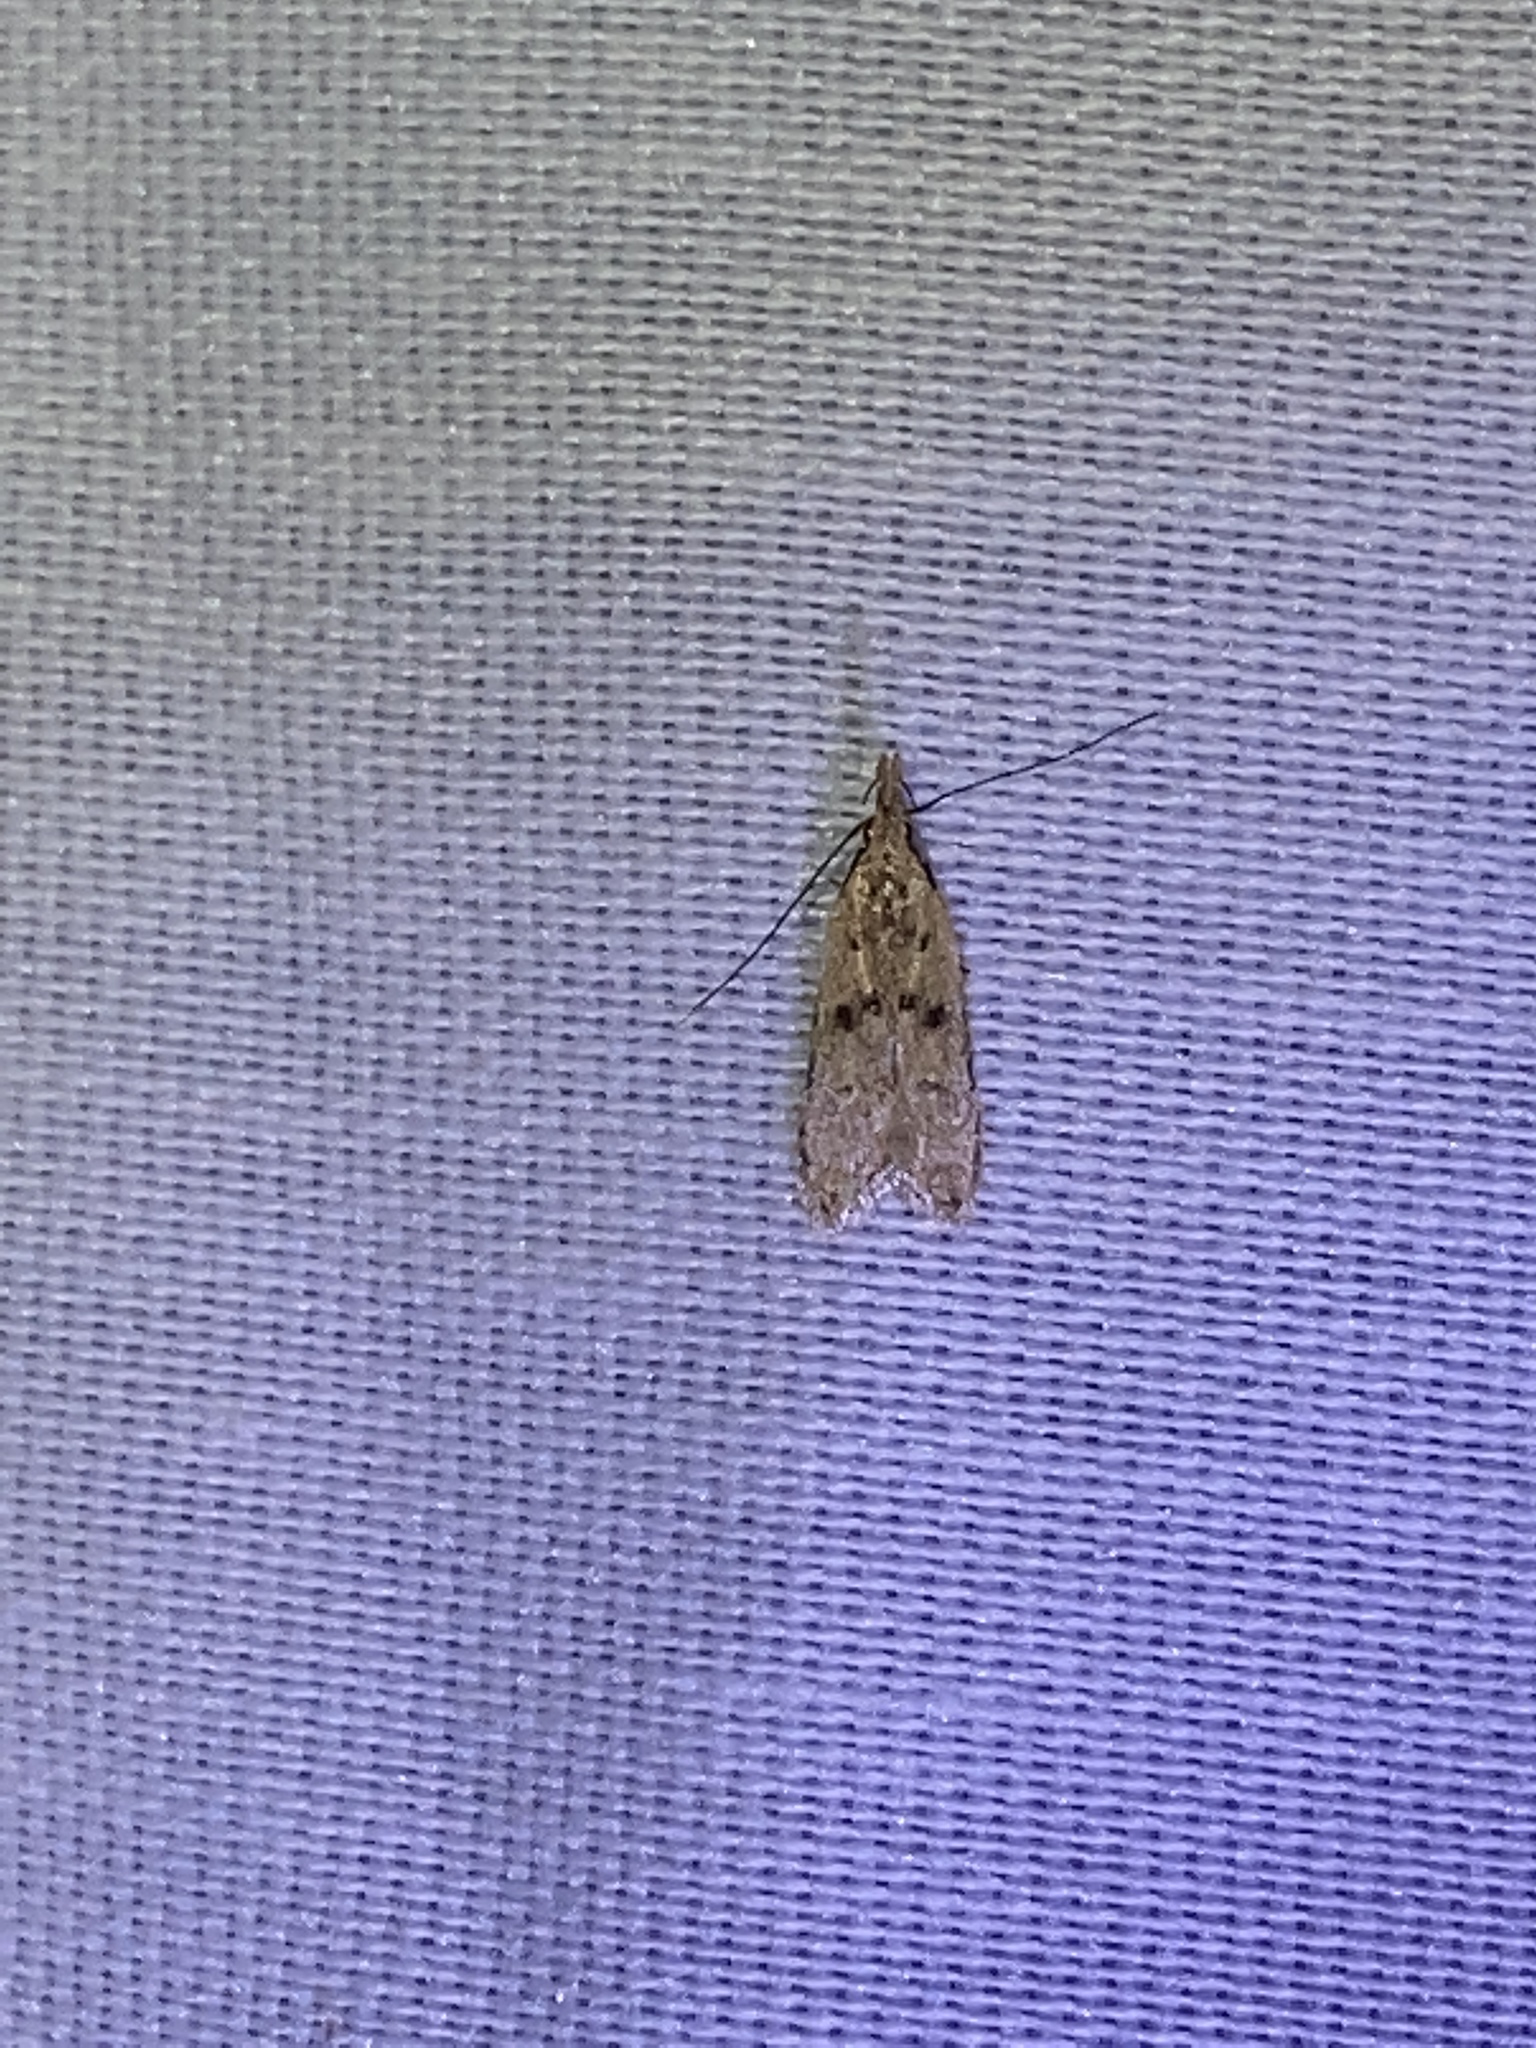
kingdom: Animalia
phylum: Arthropoda
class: Insecta
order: Lepidoptera
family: Gelechiidae
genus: Dichomeris
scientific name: Dichomeris punctipennella
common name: Many-spotted dichomeris moth
